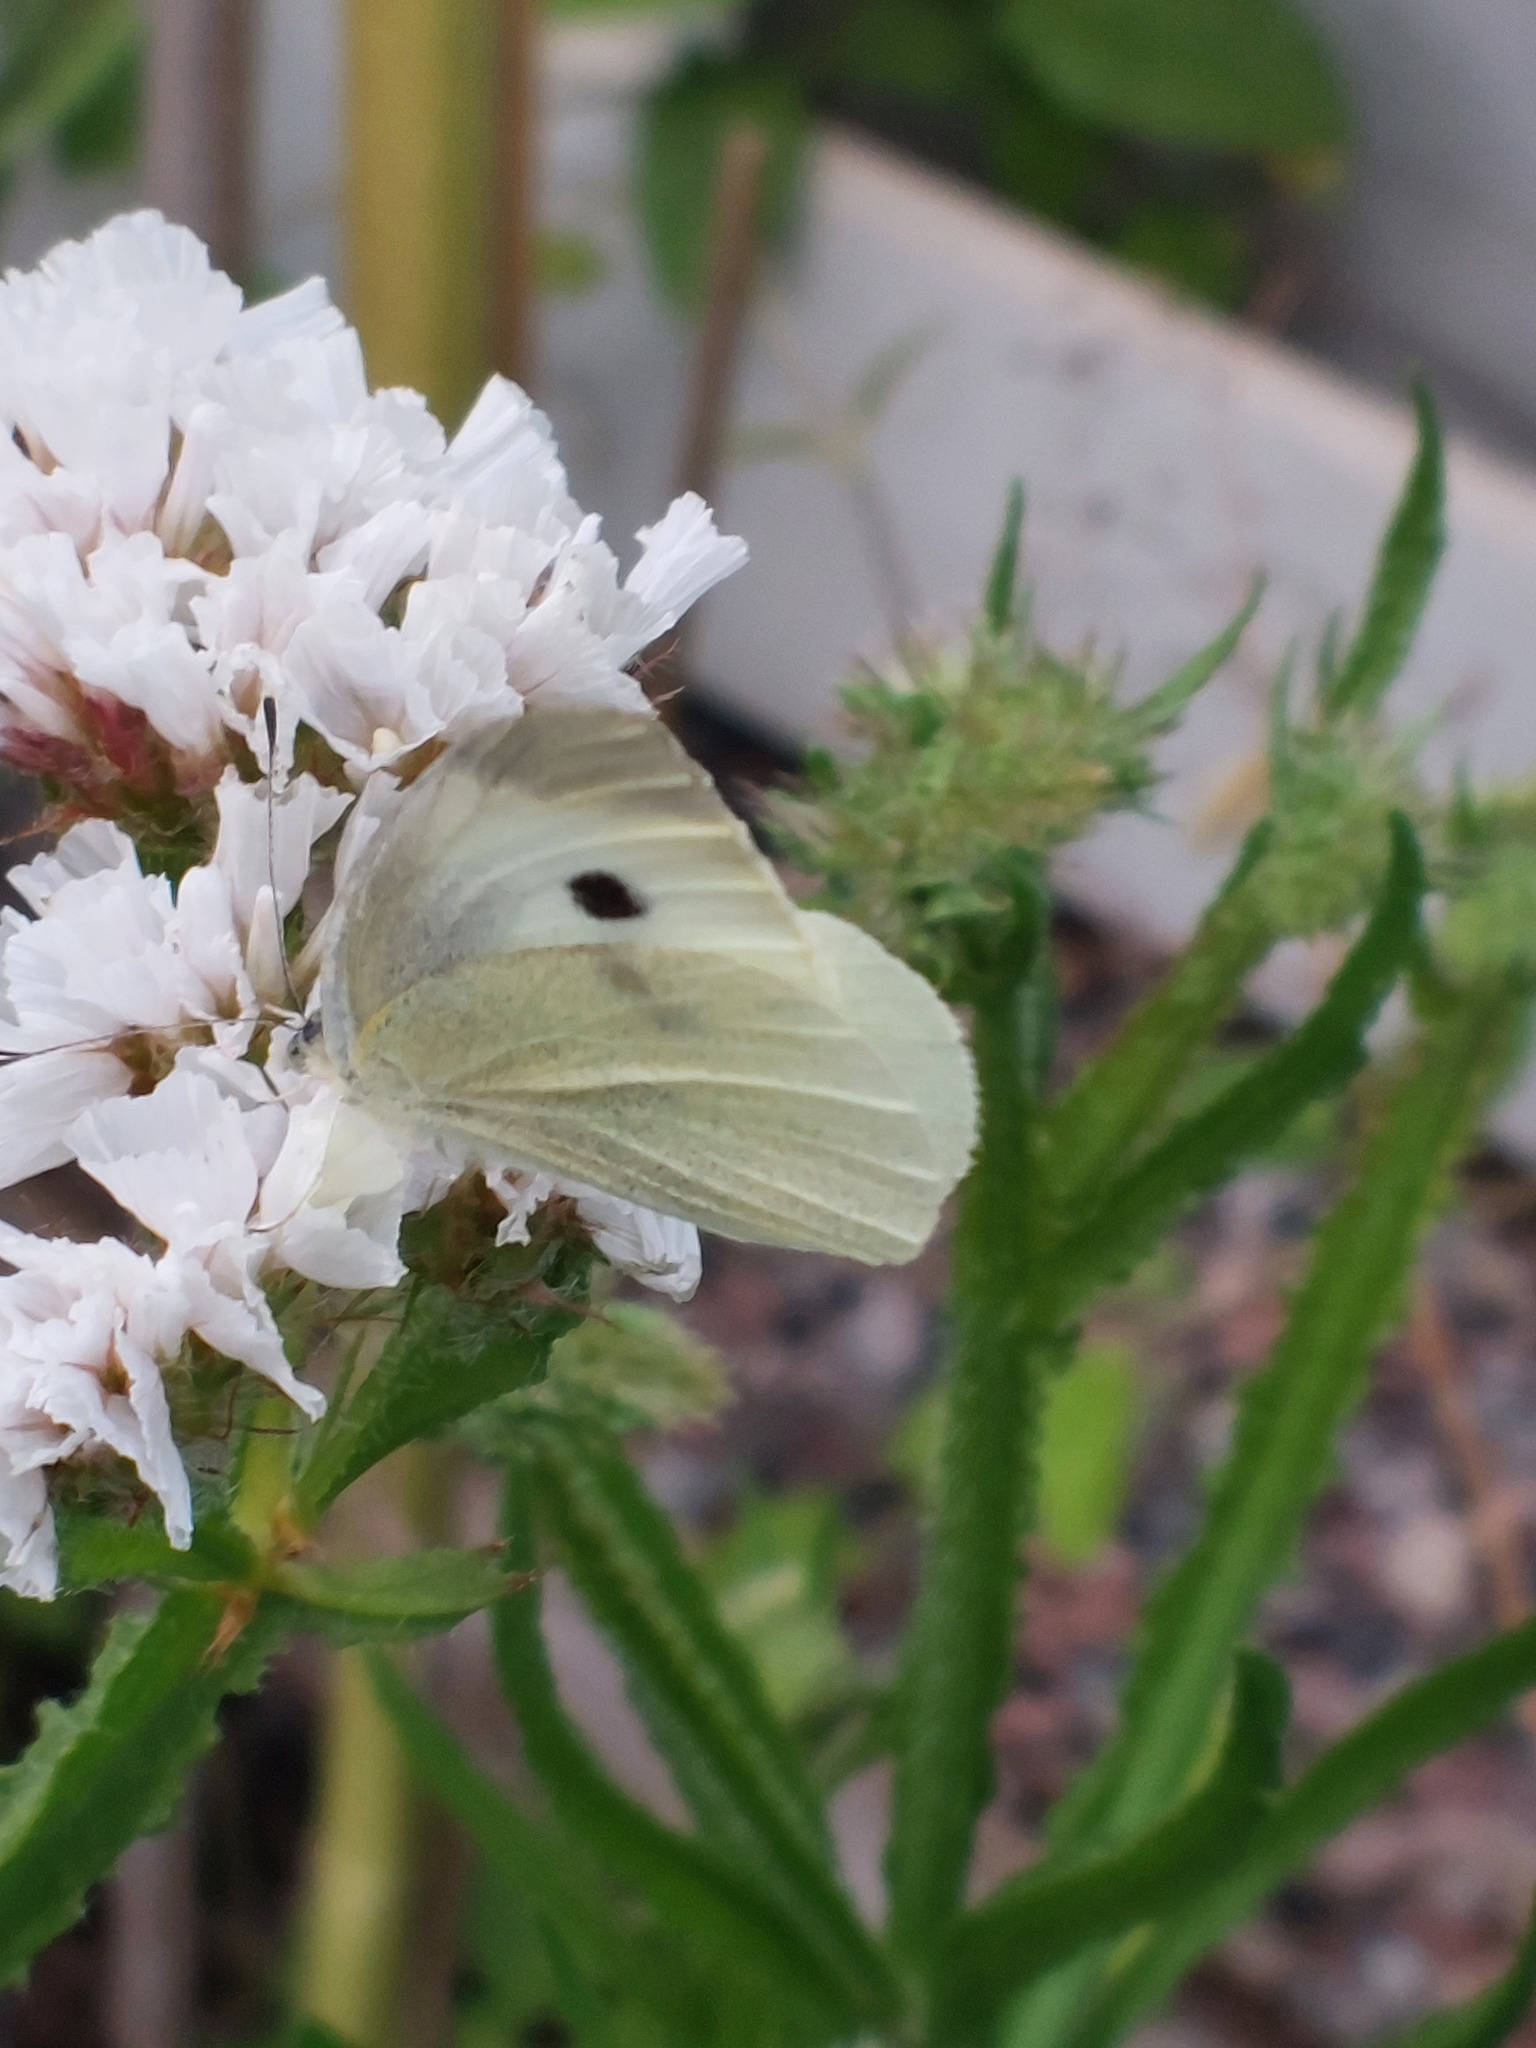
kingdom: Animalia
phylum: Arthropoda
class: Insecta
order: Lepidoptera
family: Pieridae
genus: Pieris
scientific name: Pieris rapae
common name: Small white
